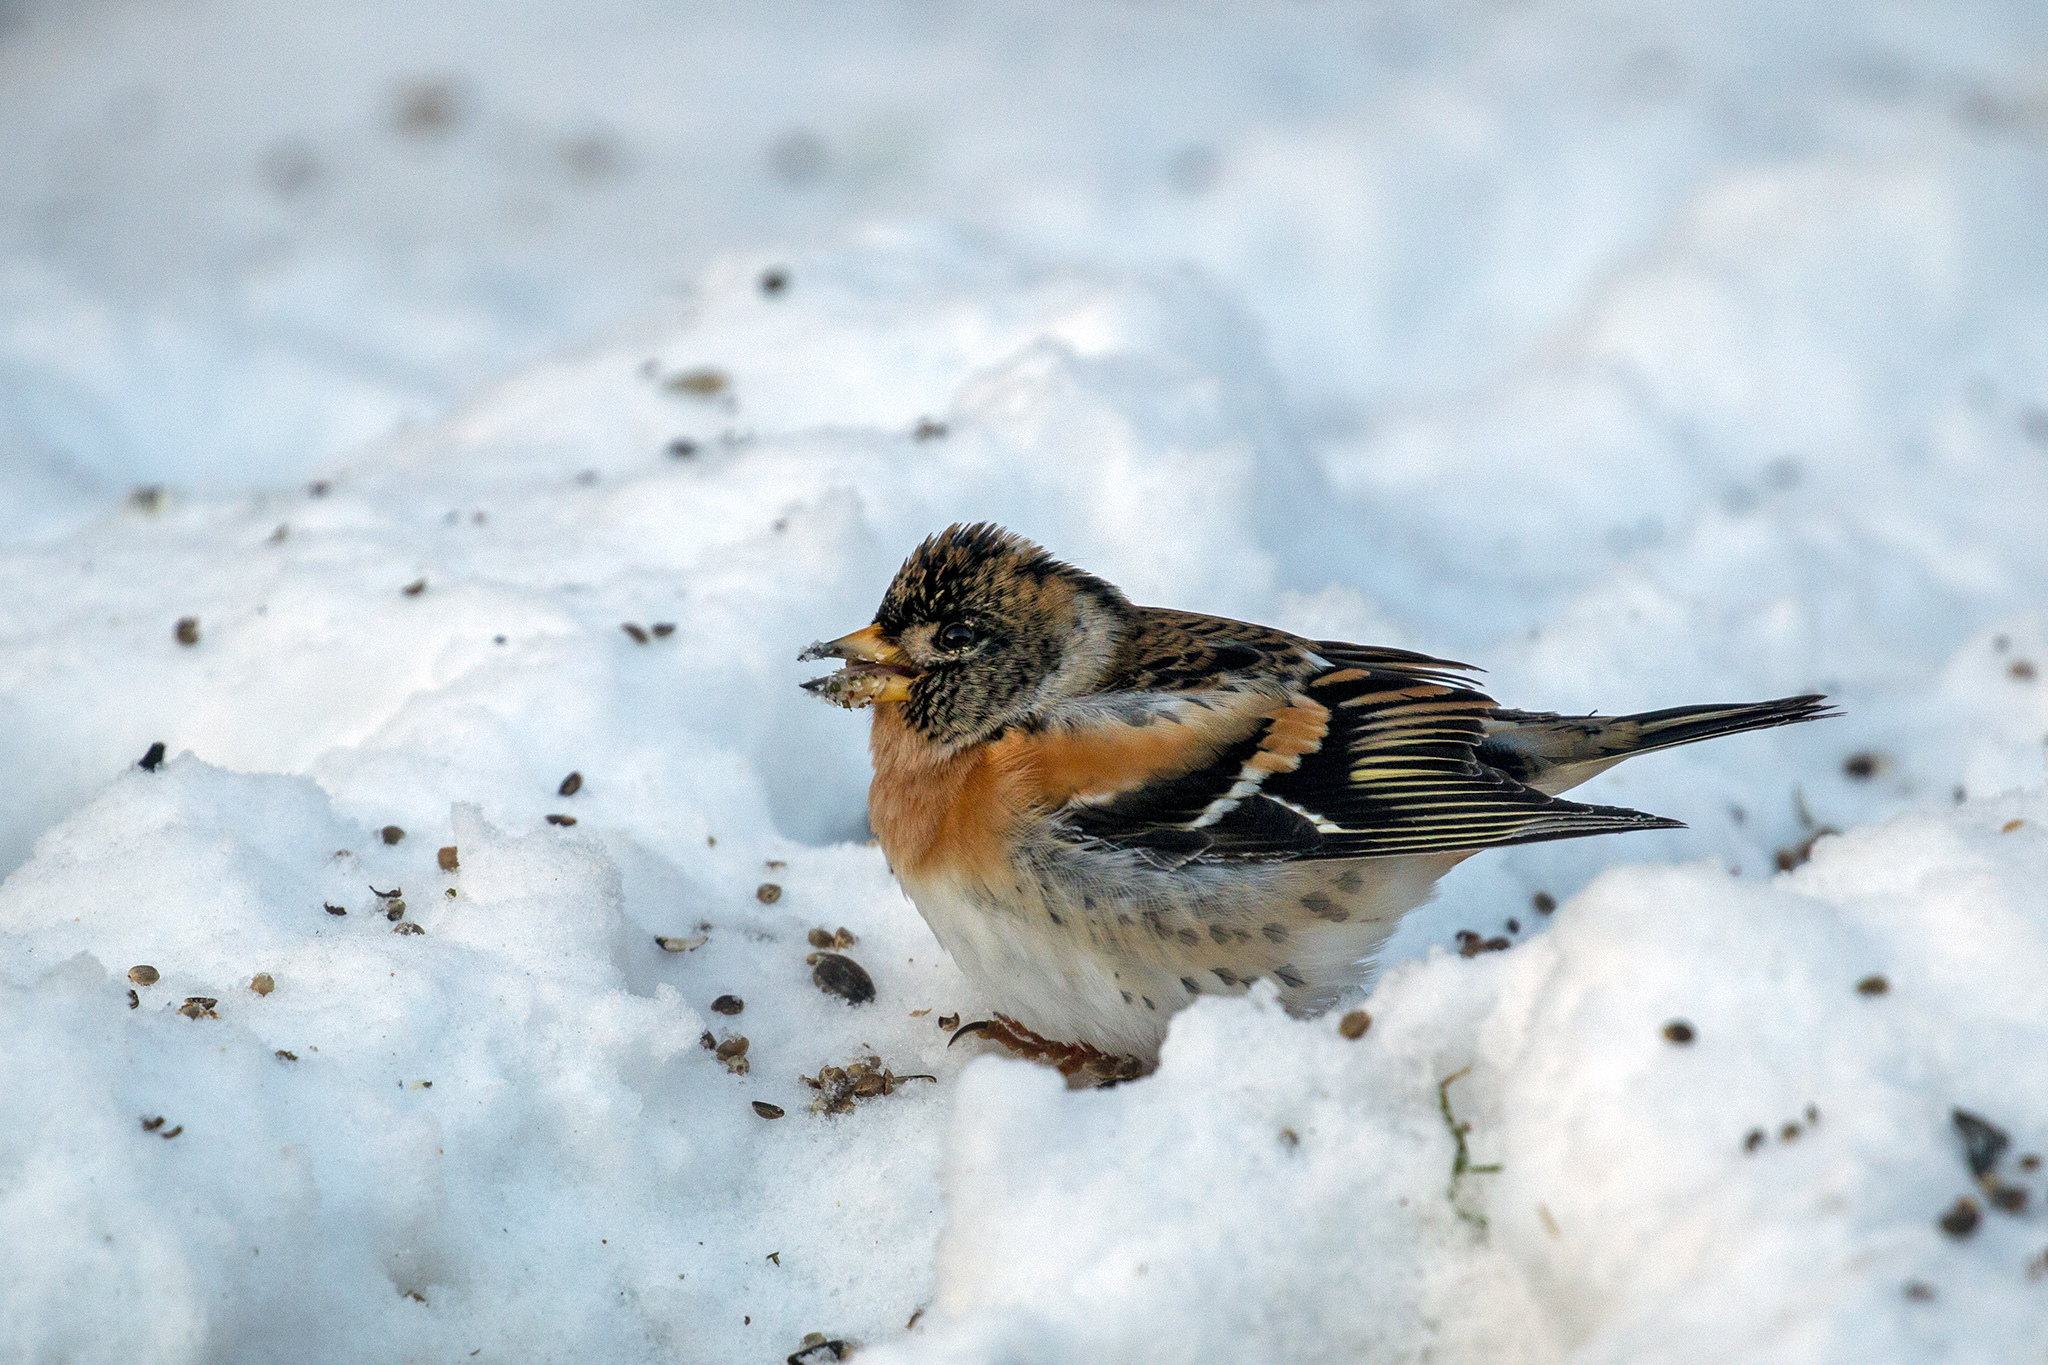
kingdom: Animalia
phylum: Chordata
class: Aves
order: Passeriformes
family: Fringillidae
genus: Fringilla
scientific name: Fringilla montifringilla
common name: Brambling
